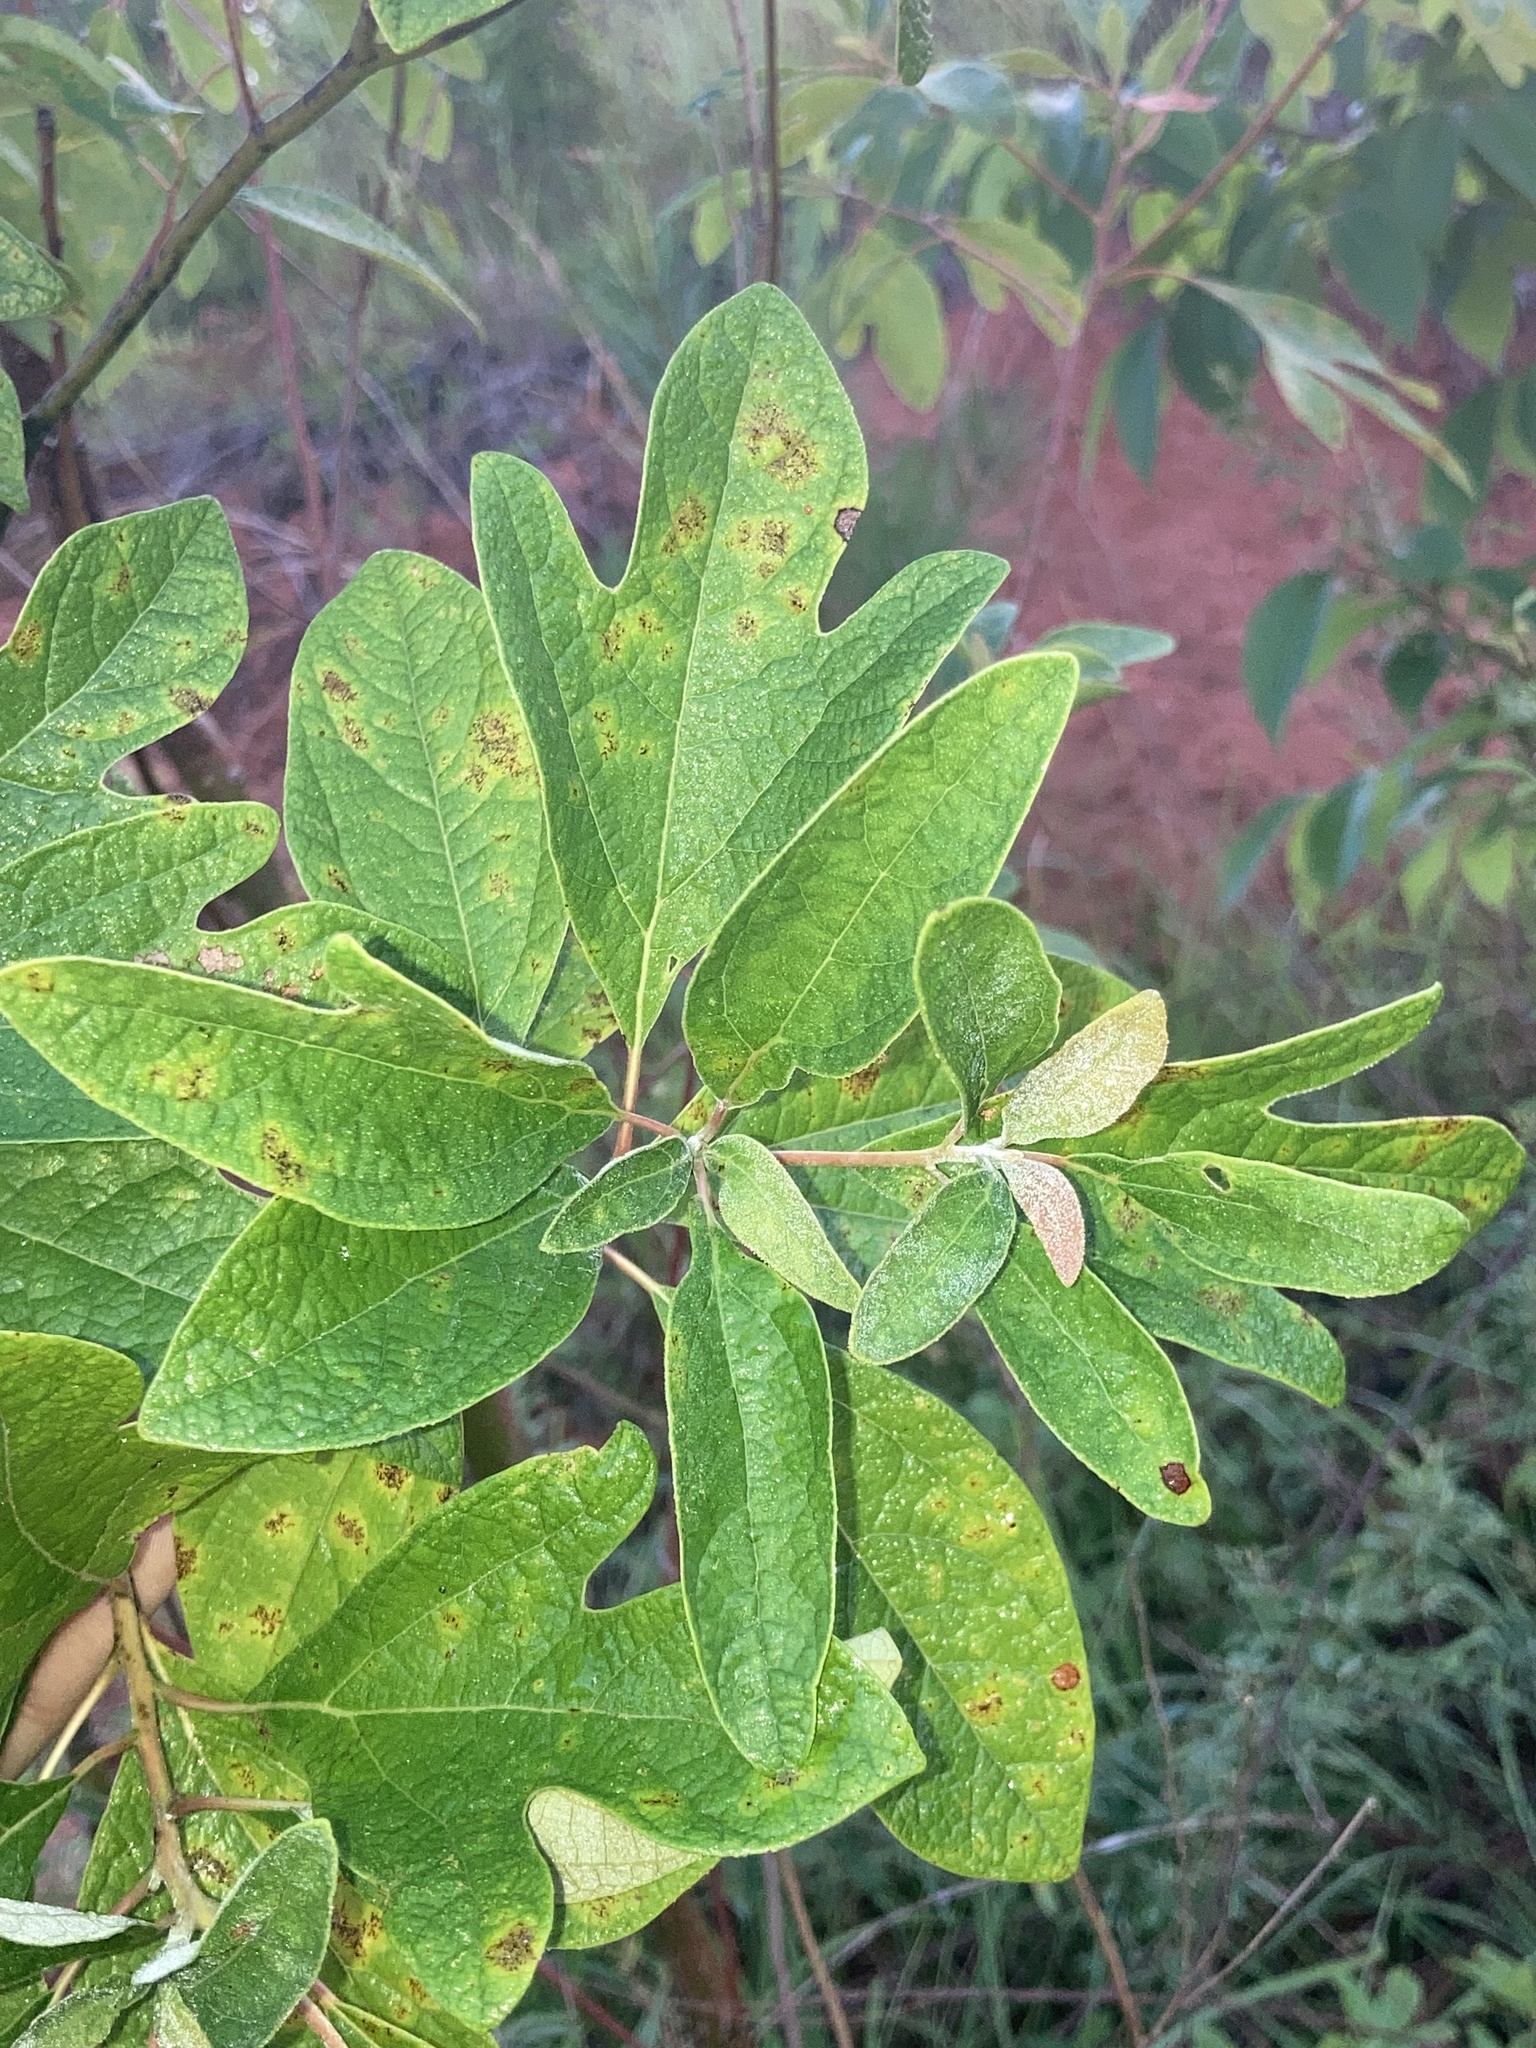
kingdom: Plantae
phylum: Tracheophyta
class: Magnoliopsida
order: Laurales
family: Lauraceae
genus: Sassafras
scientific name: Sassafras albidum
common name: Sassafras
